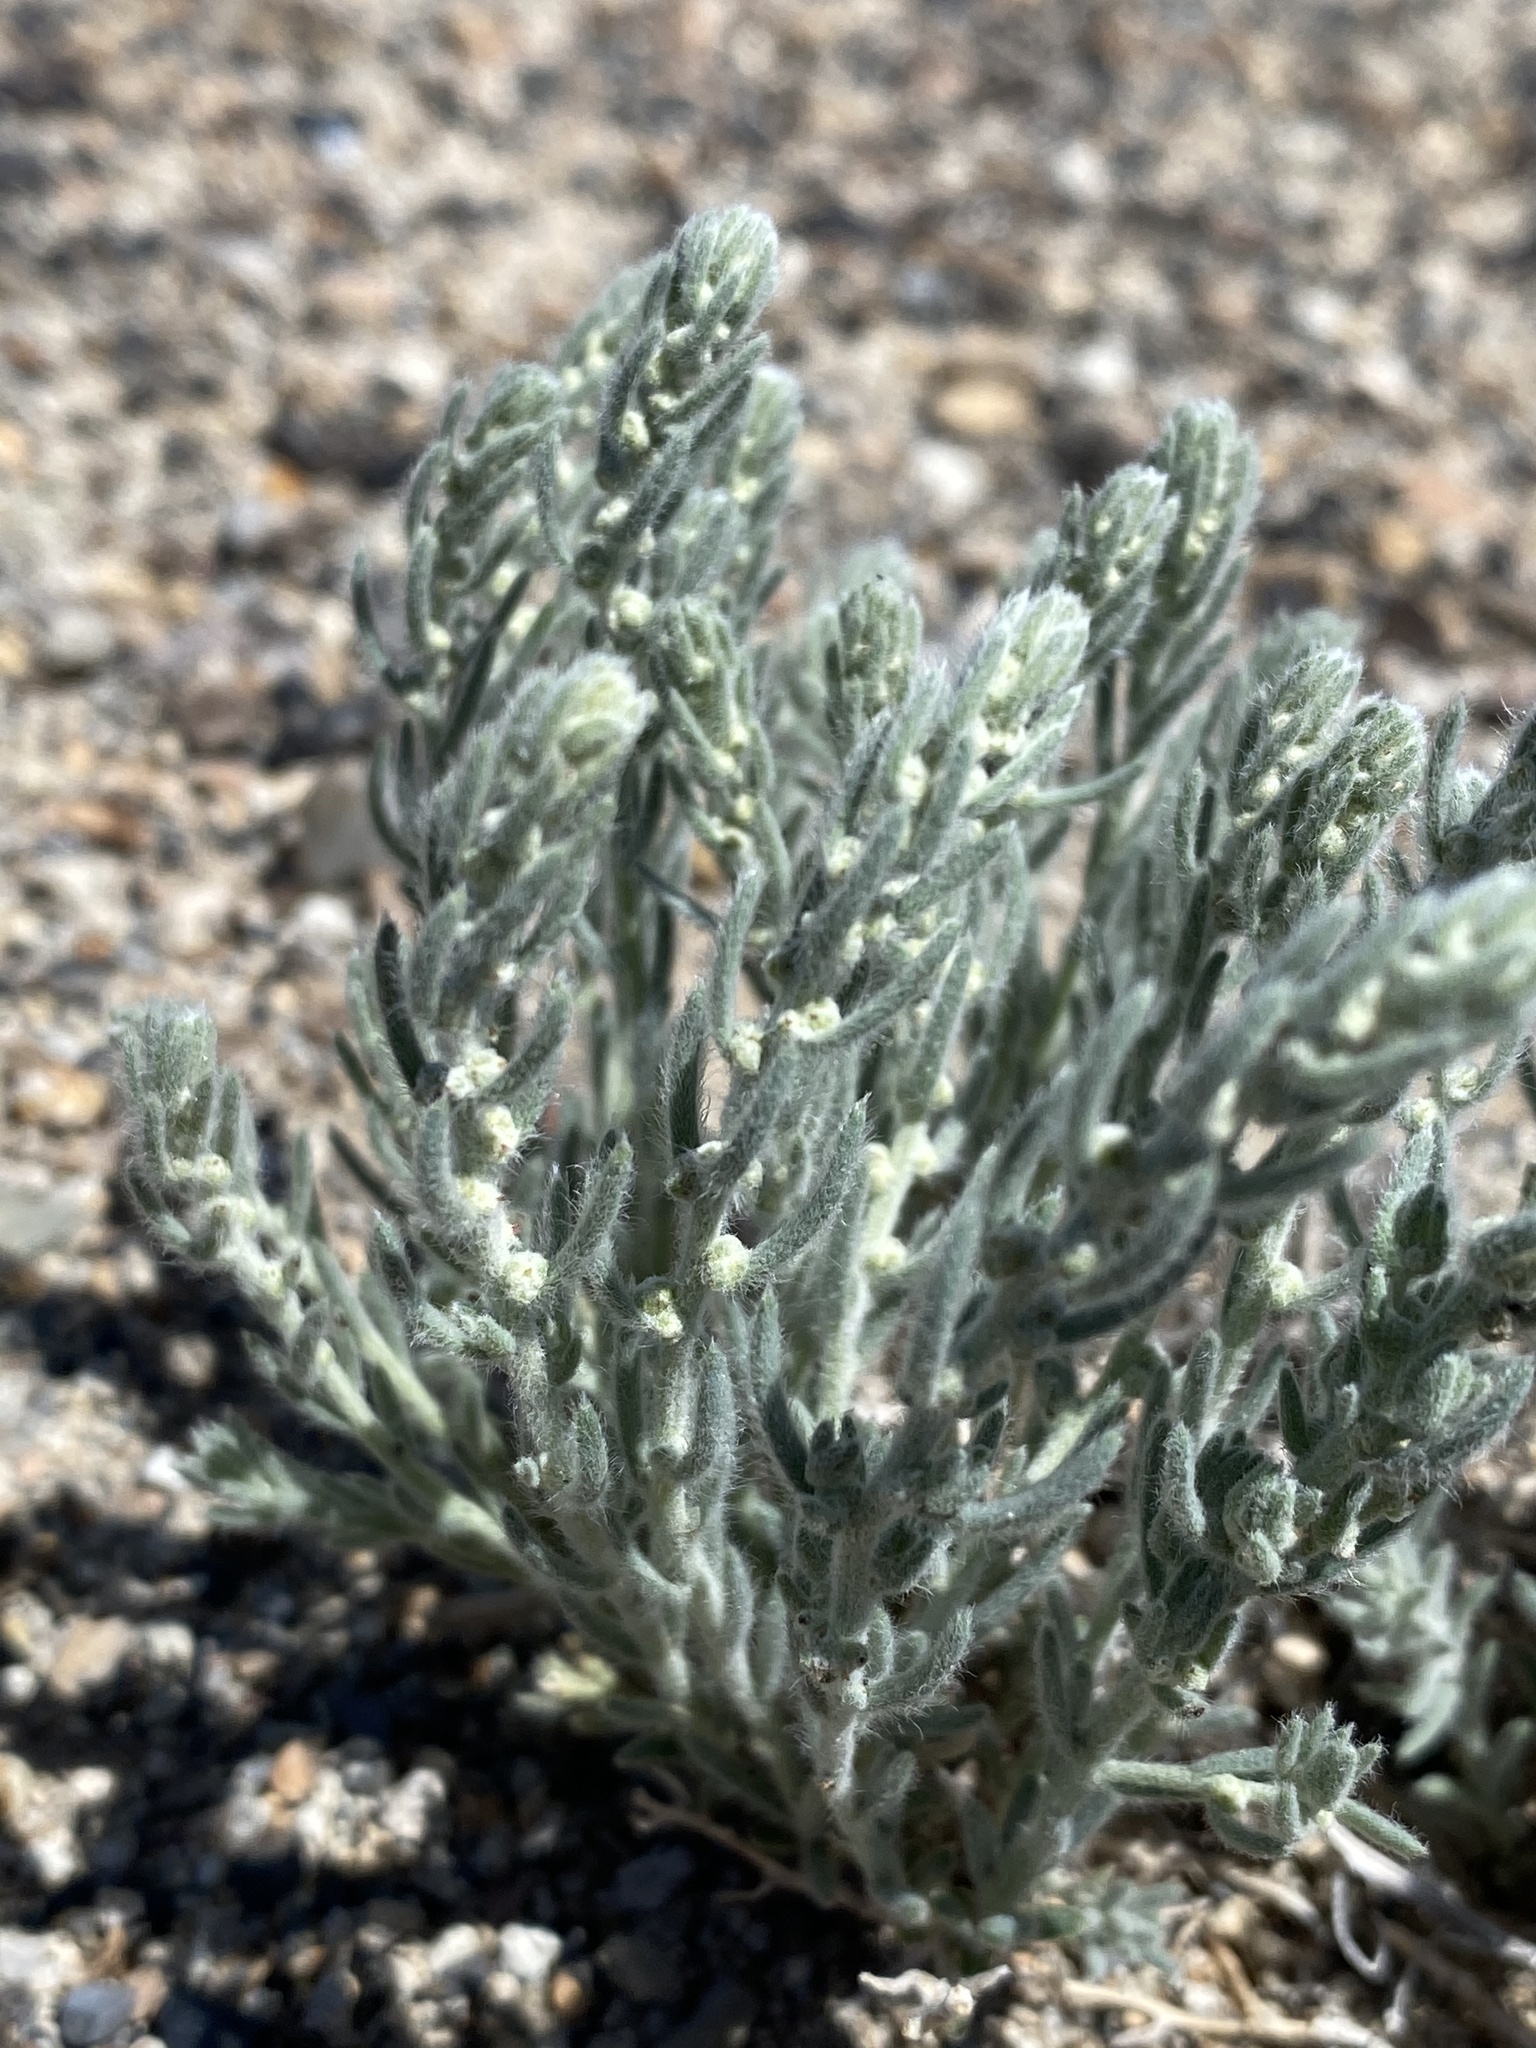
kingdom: Plantae
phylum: Tracheophyta
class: Magnoliopsida
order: Caryophyllales
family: Amaranthaceae
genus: Neokochia
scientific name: Neokochia americana
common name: Perennial summer-cypress
